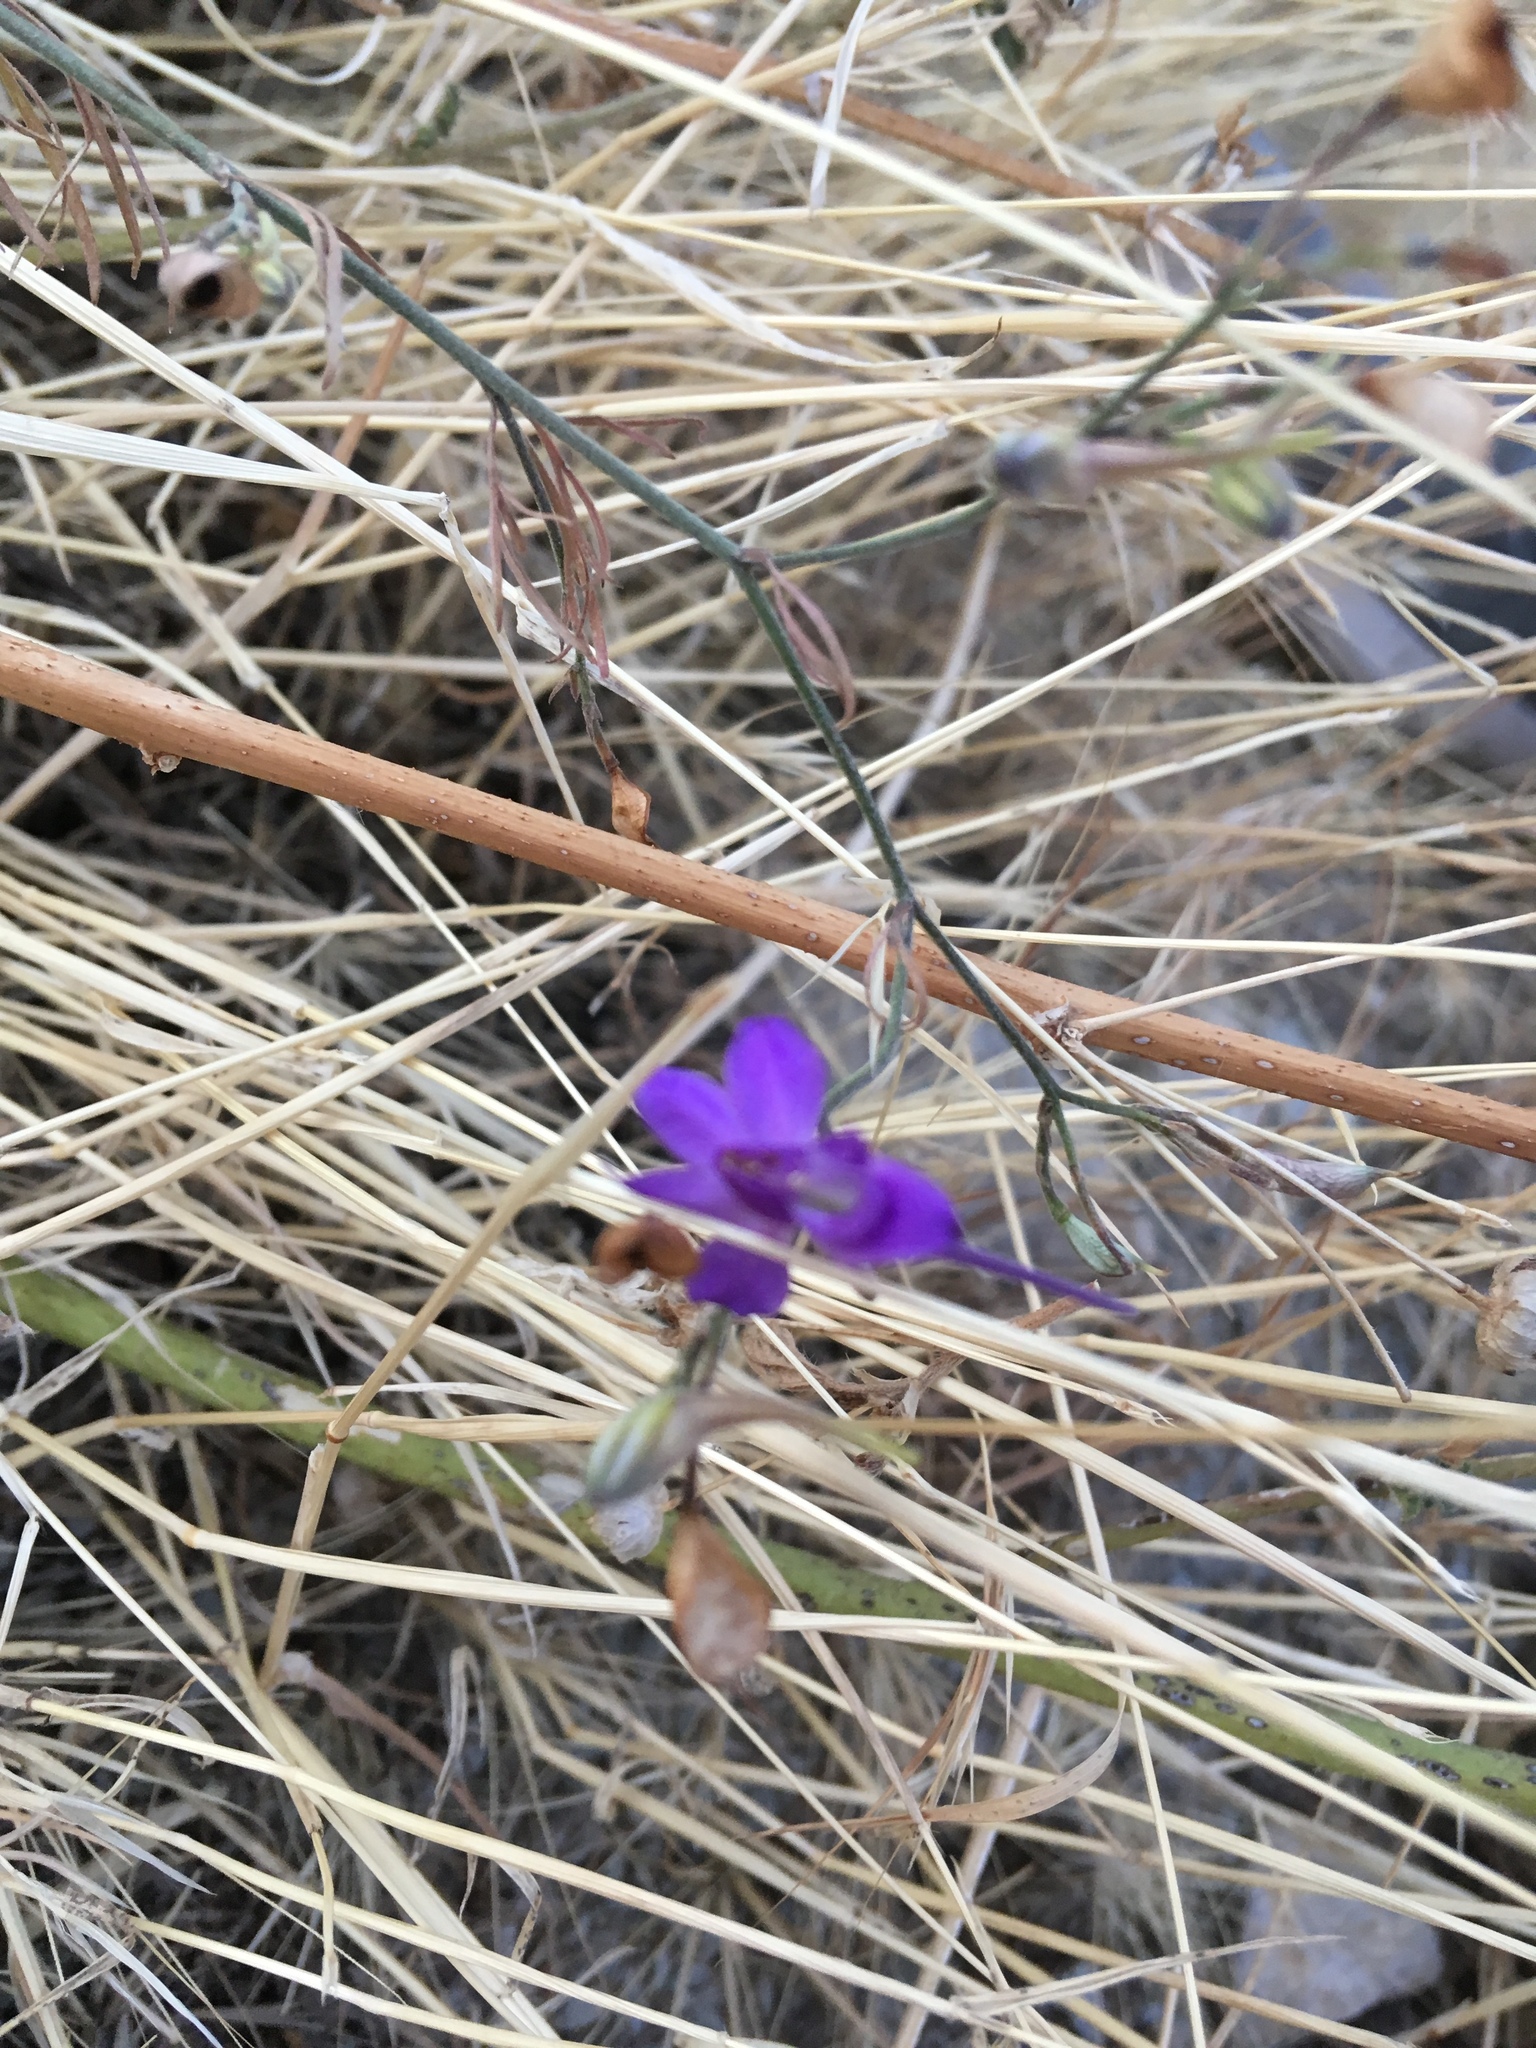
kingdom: Plantae
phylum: Tracheophyta
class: Magnoliopsida
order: Ranunculales
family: Ranunculaceae
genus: Delphinium
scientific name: Delphinium consolida
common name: Branching larkspur
